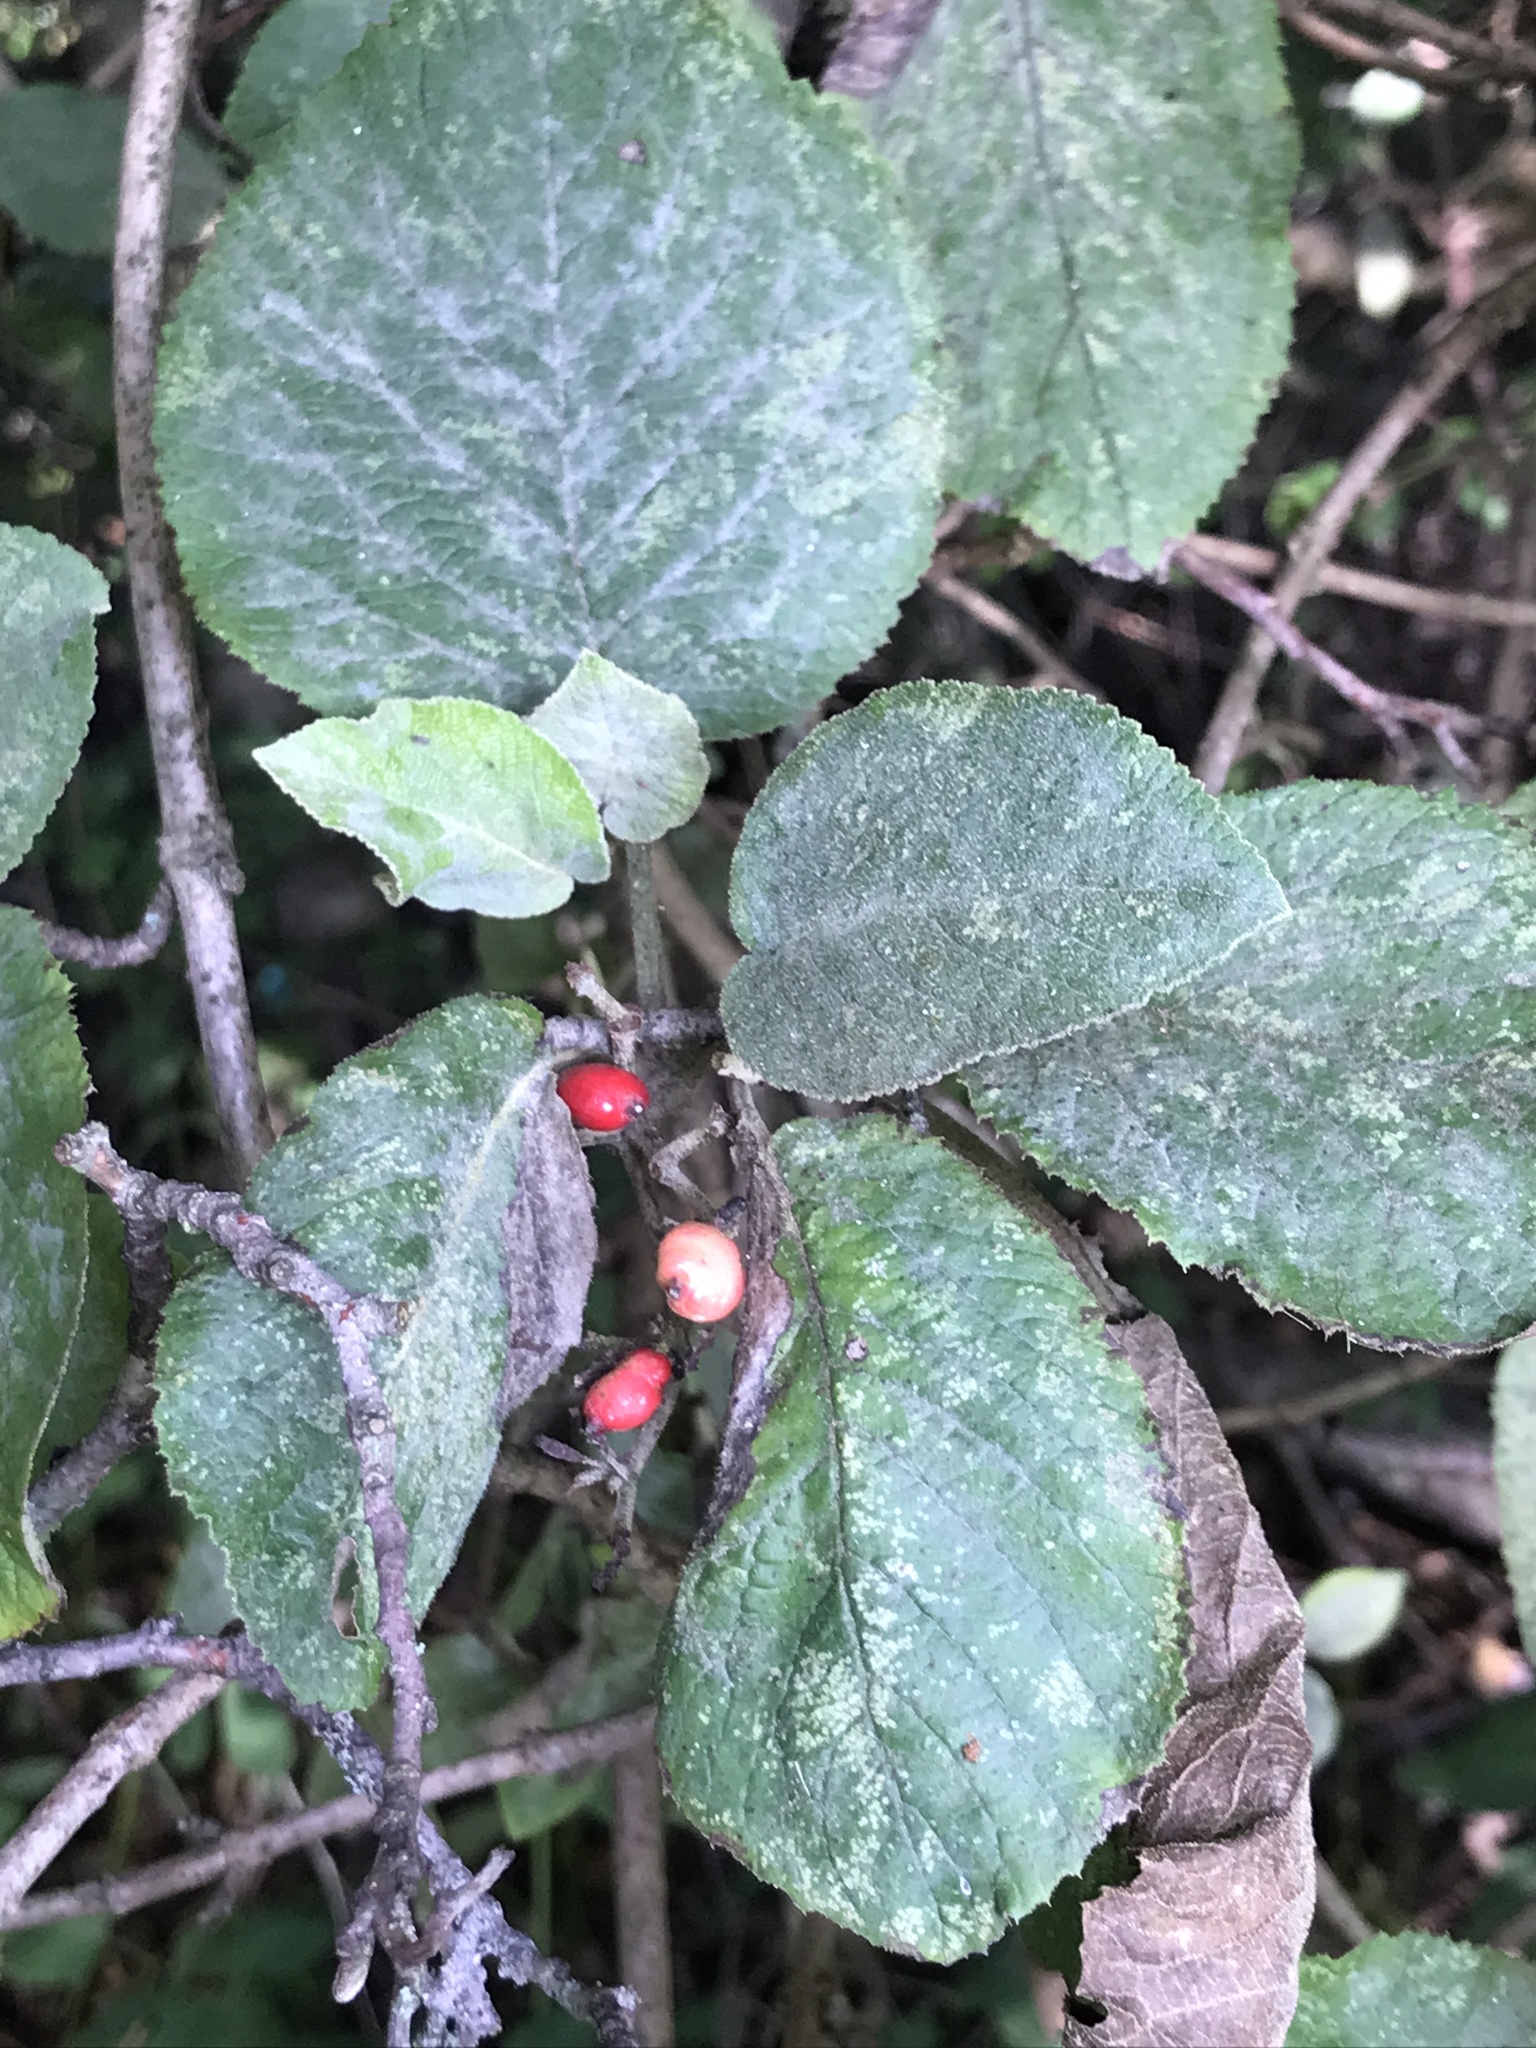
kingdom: Plantae
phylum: Tracheophyta
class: Magnoliopsida
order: Dipsacales
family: Viburnaceae
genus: Viburnum
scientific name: Viburnum lantana
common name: Wayfaring tree
